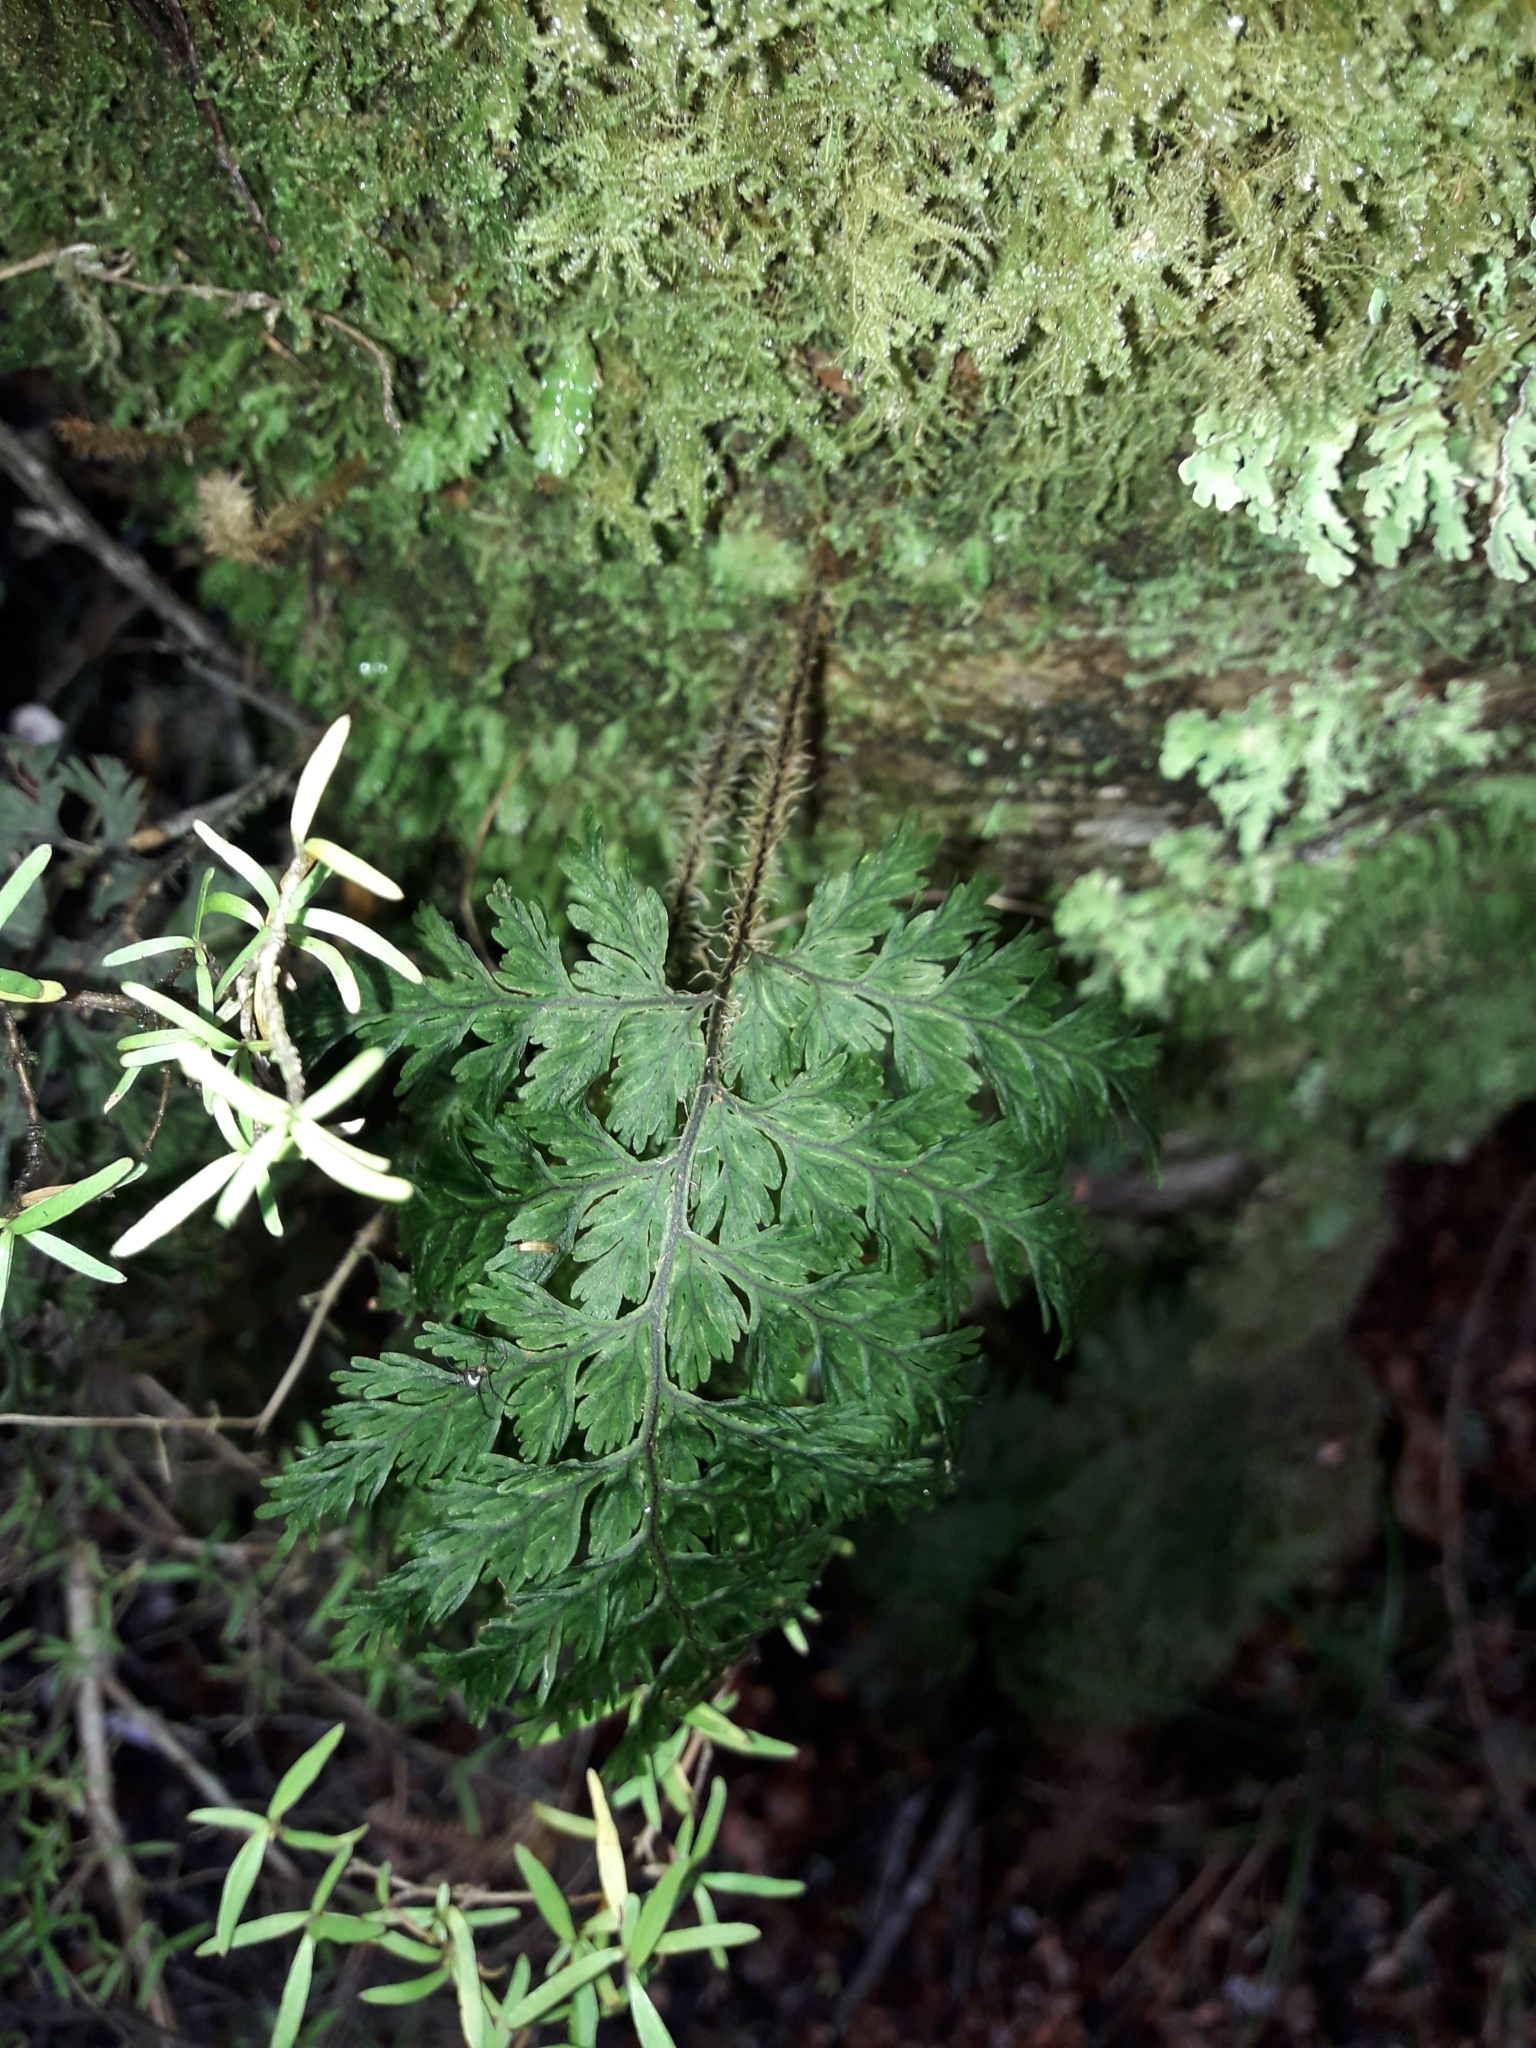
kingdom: Plantae
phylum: Tracheophyta
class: Polypodiopsida
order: Hymenophyllales
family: Hymenophyllaceae
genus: Hymenophyllum
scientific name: Hymenophyllum scabrum
